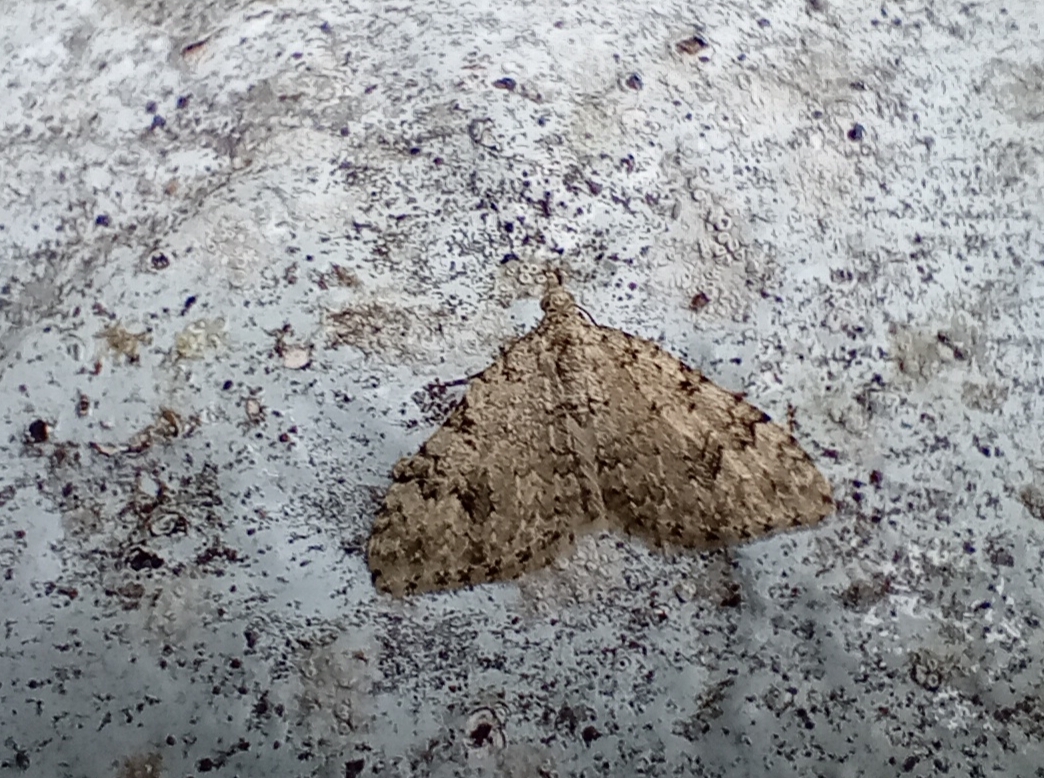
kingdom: Animalia
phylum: Arthropoda
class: Insecta
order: Lepidoptera
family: Geometridae
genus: Helastia
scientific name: Helastia cinerearia
